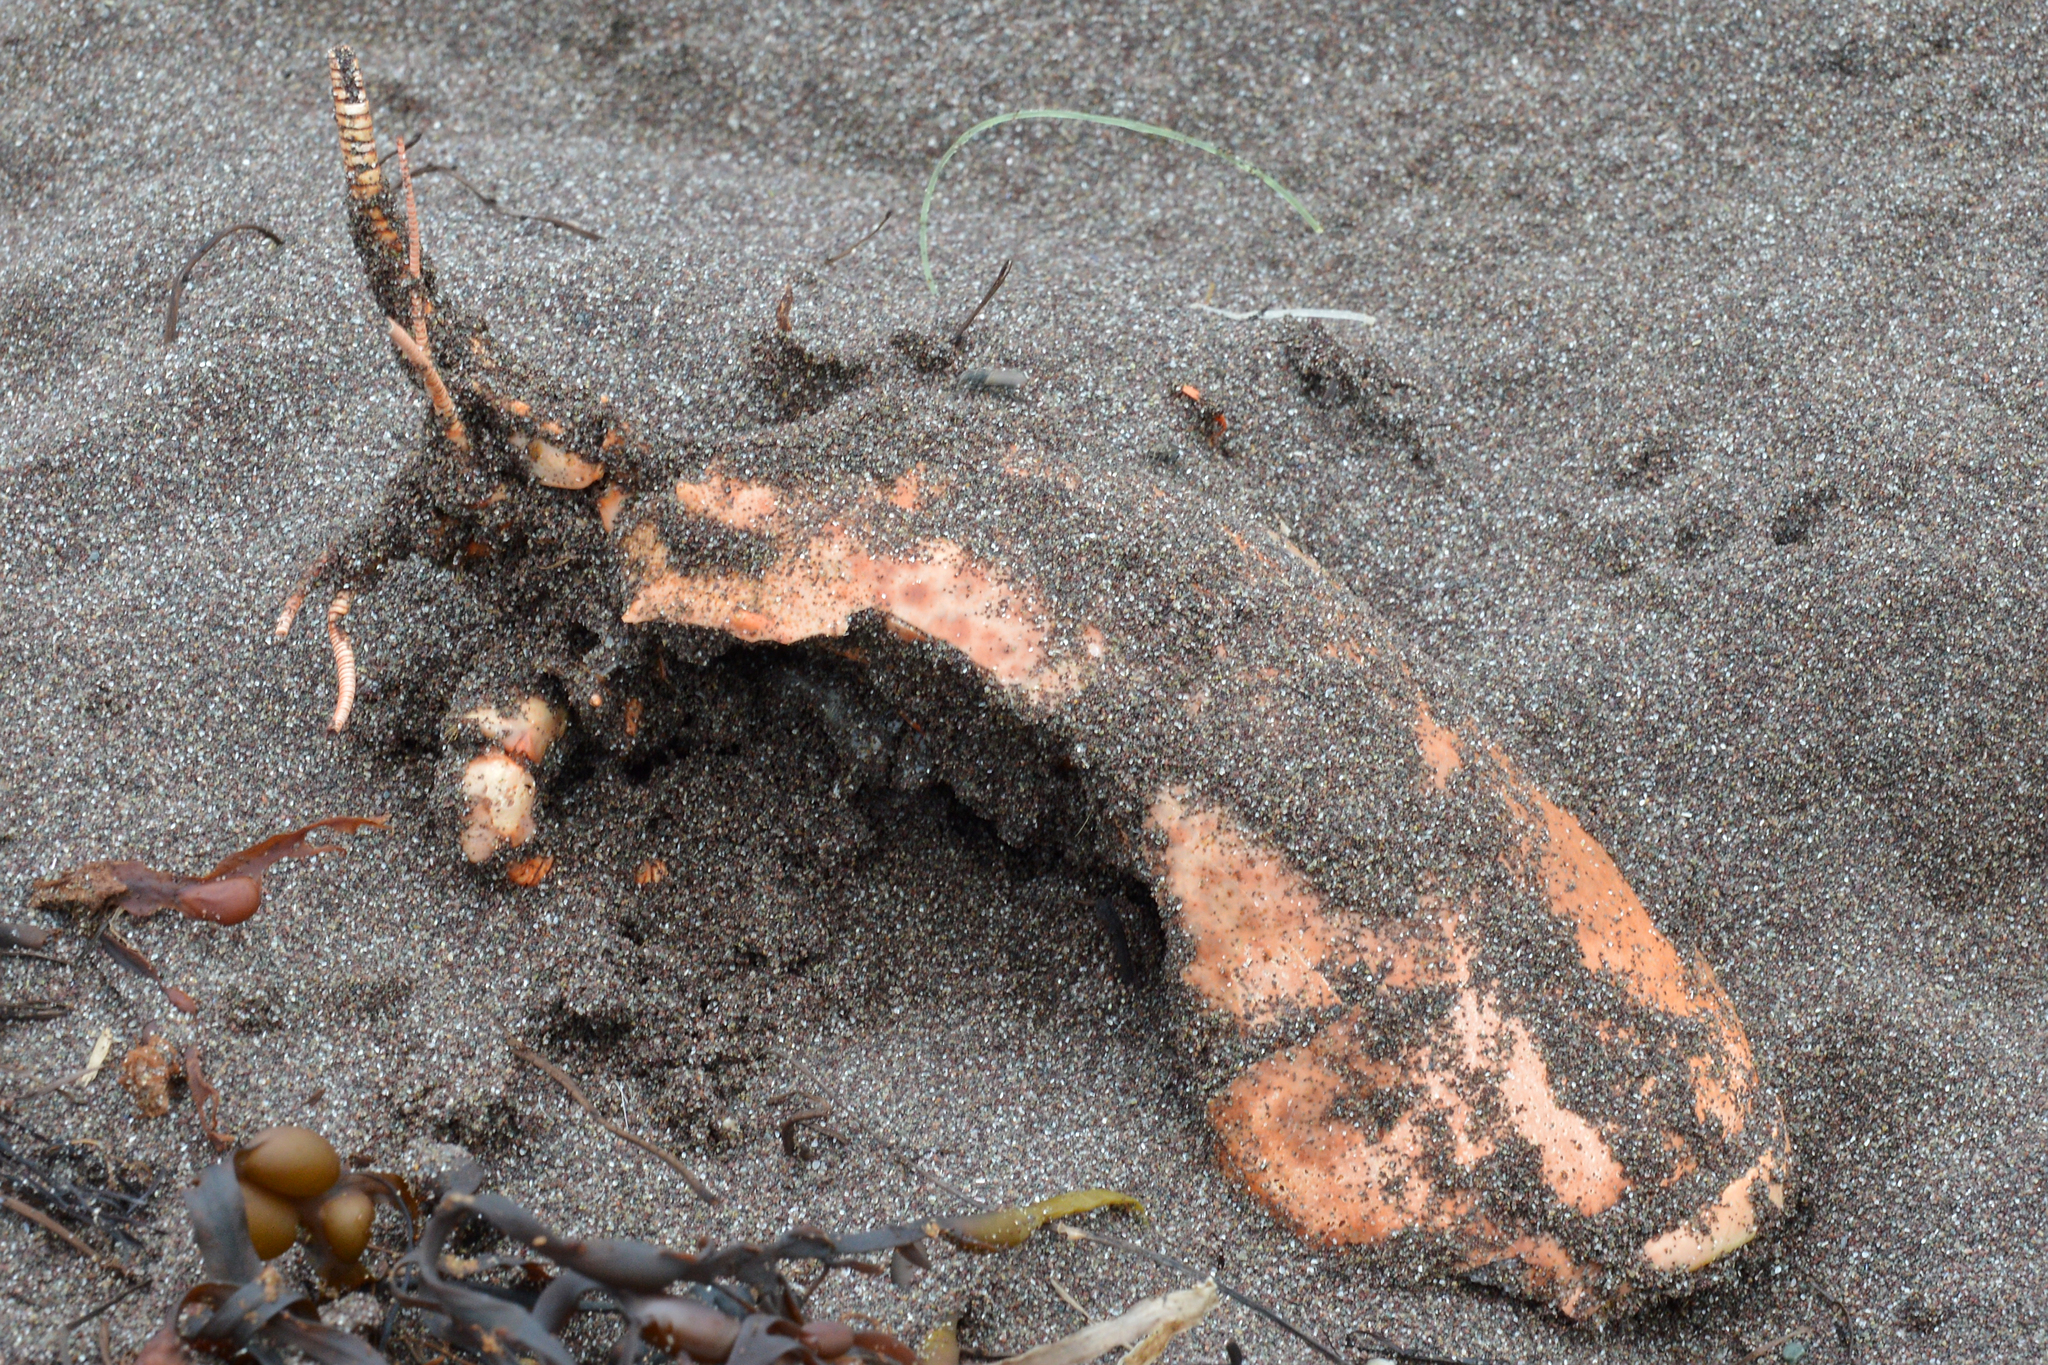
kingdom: Animalia
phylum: Arthropoda
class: Malacostraca
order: Decapoda
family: Nephropidae
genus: Homarus
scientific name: Homarus americanus
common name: American lobster
